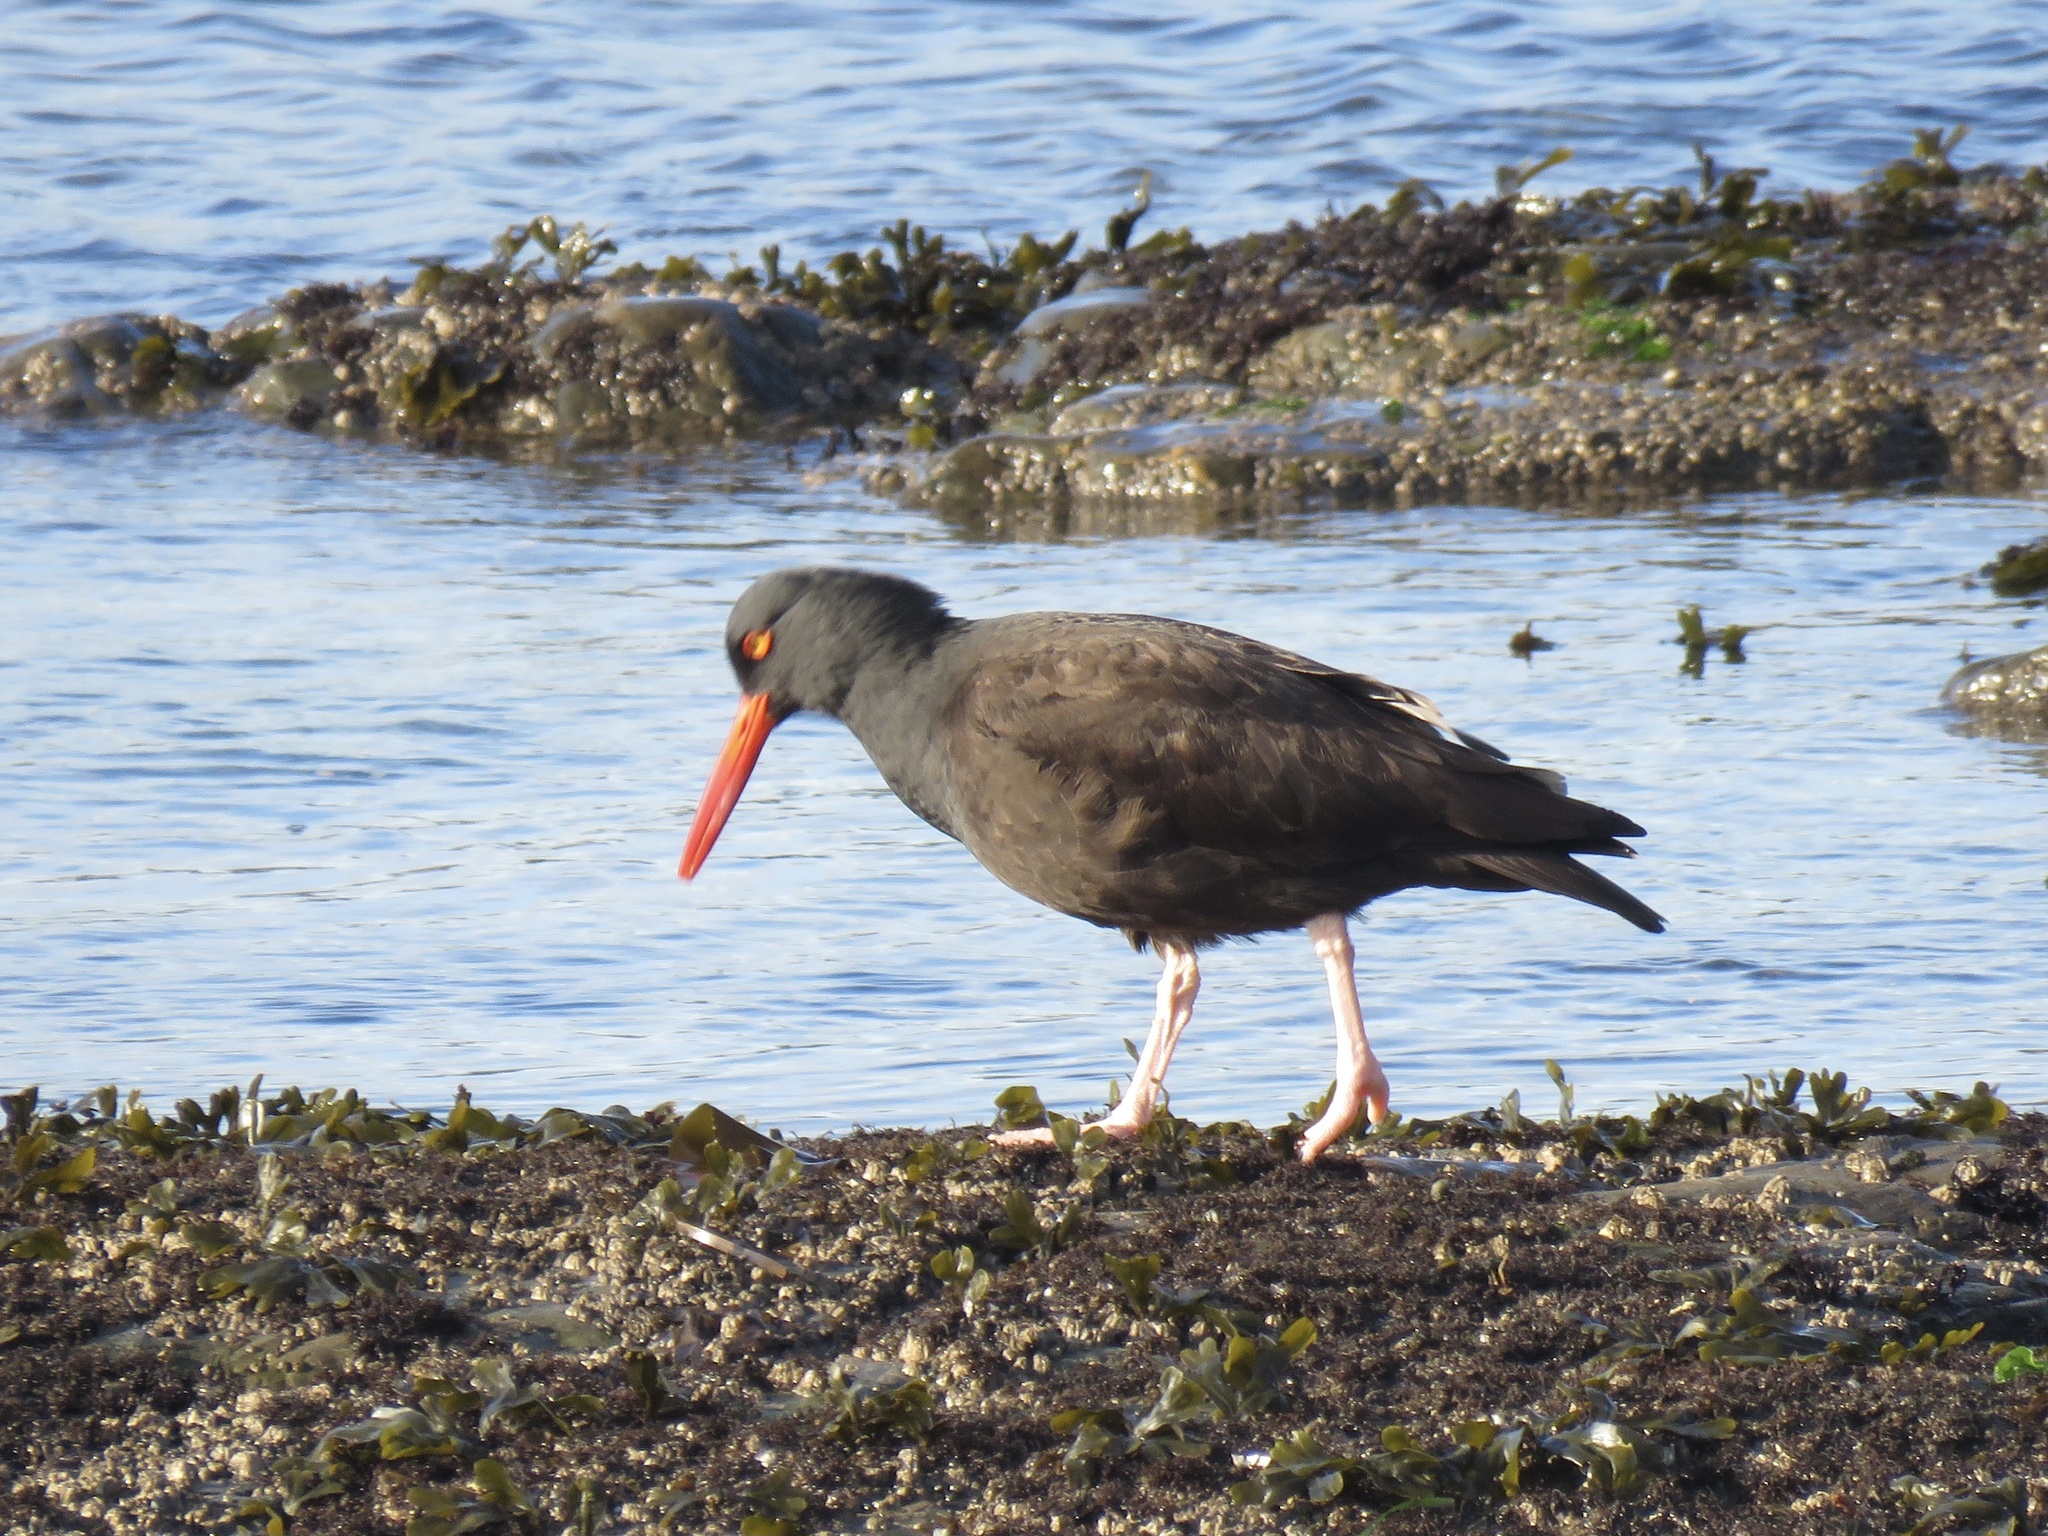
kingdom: Animalia
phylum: Chordata
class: Aves
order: Charadriiformes
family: Haematopodidae
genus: Haematopus
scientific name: Haematopus bachmani
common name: Black oystercatcher
